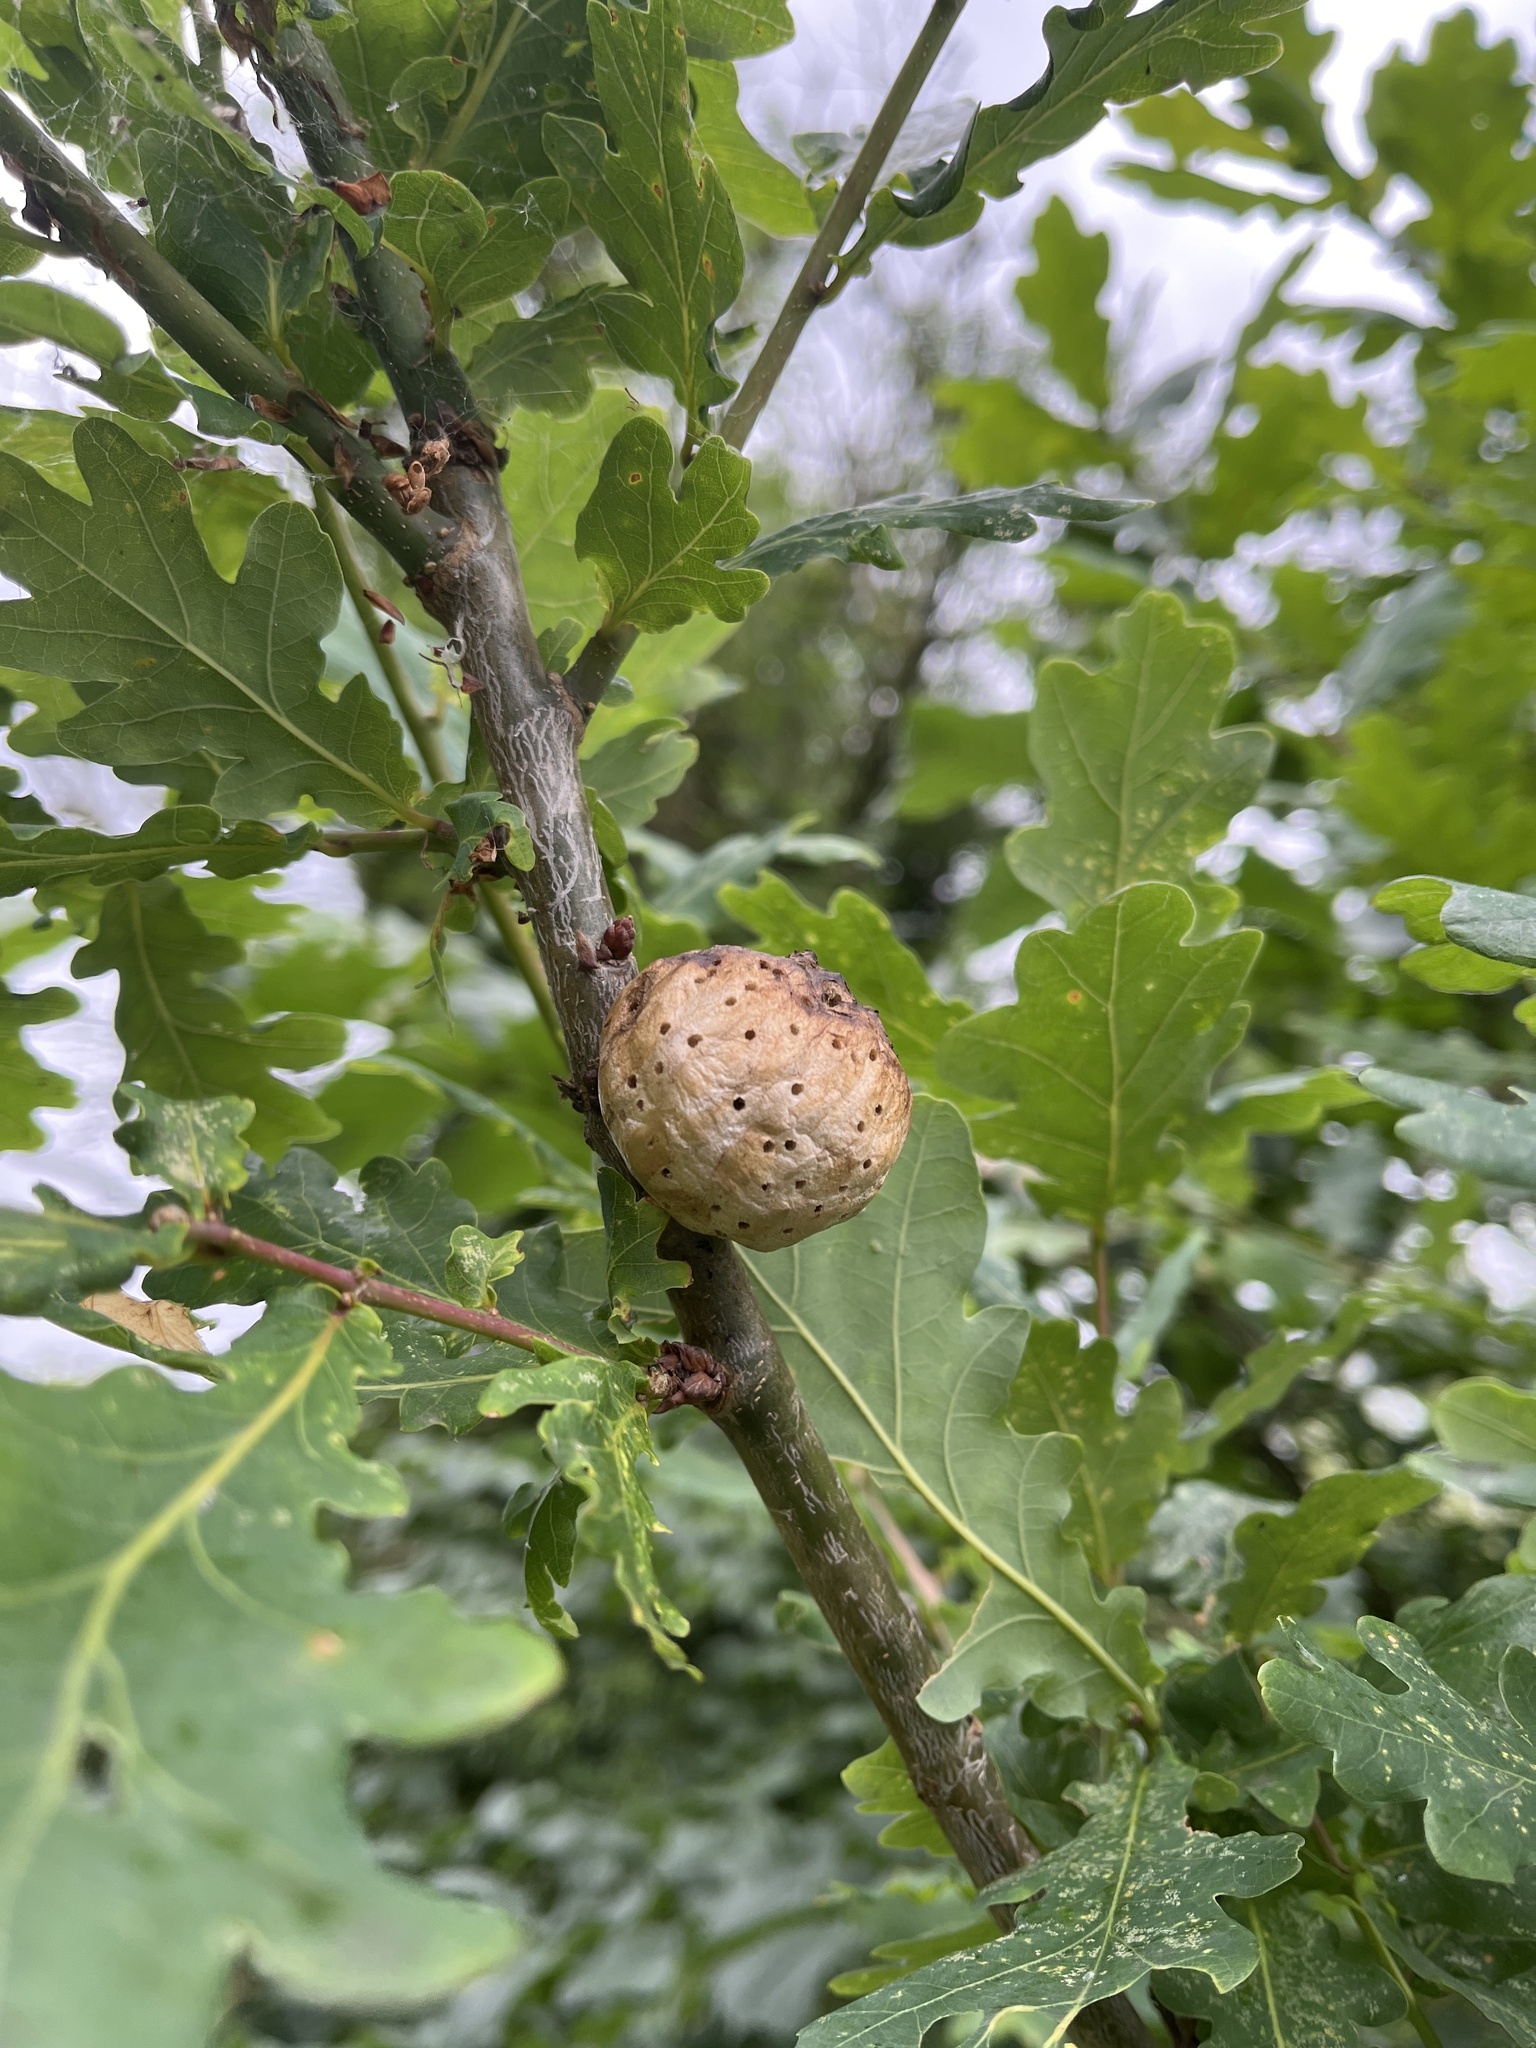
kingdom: Animalia
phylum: Arthropoda
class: Insecta
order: Hymenoptera
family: Cynipidae
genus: Biorhiza
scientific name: Biorhiza pallida
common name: Oak apple
